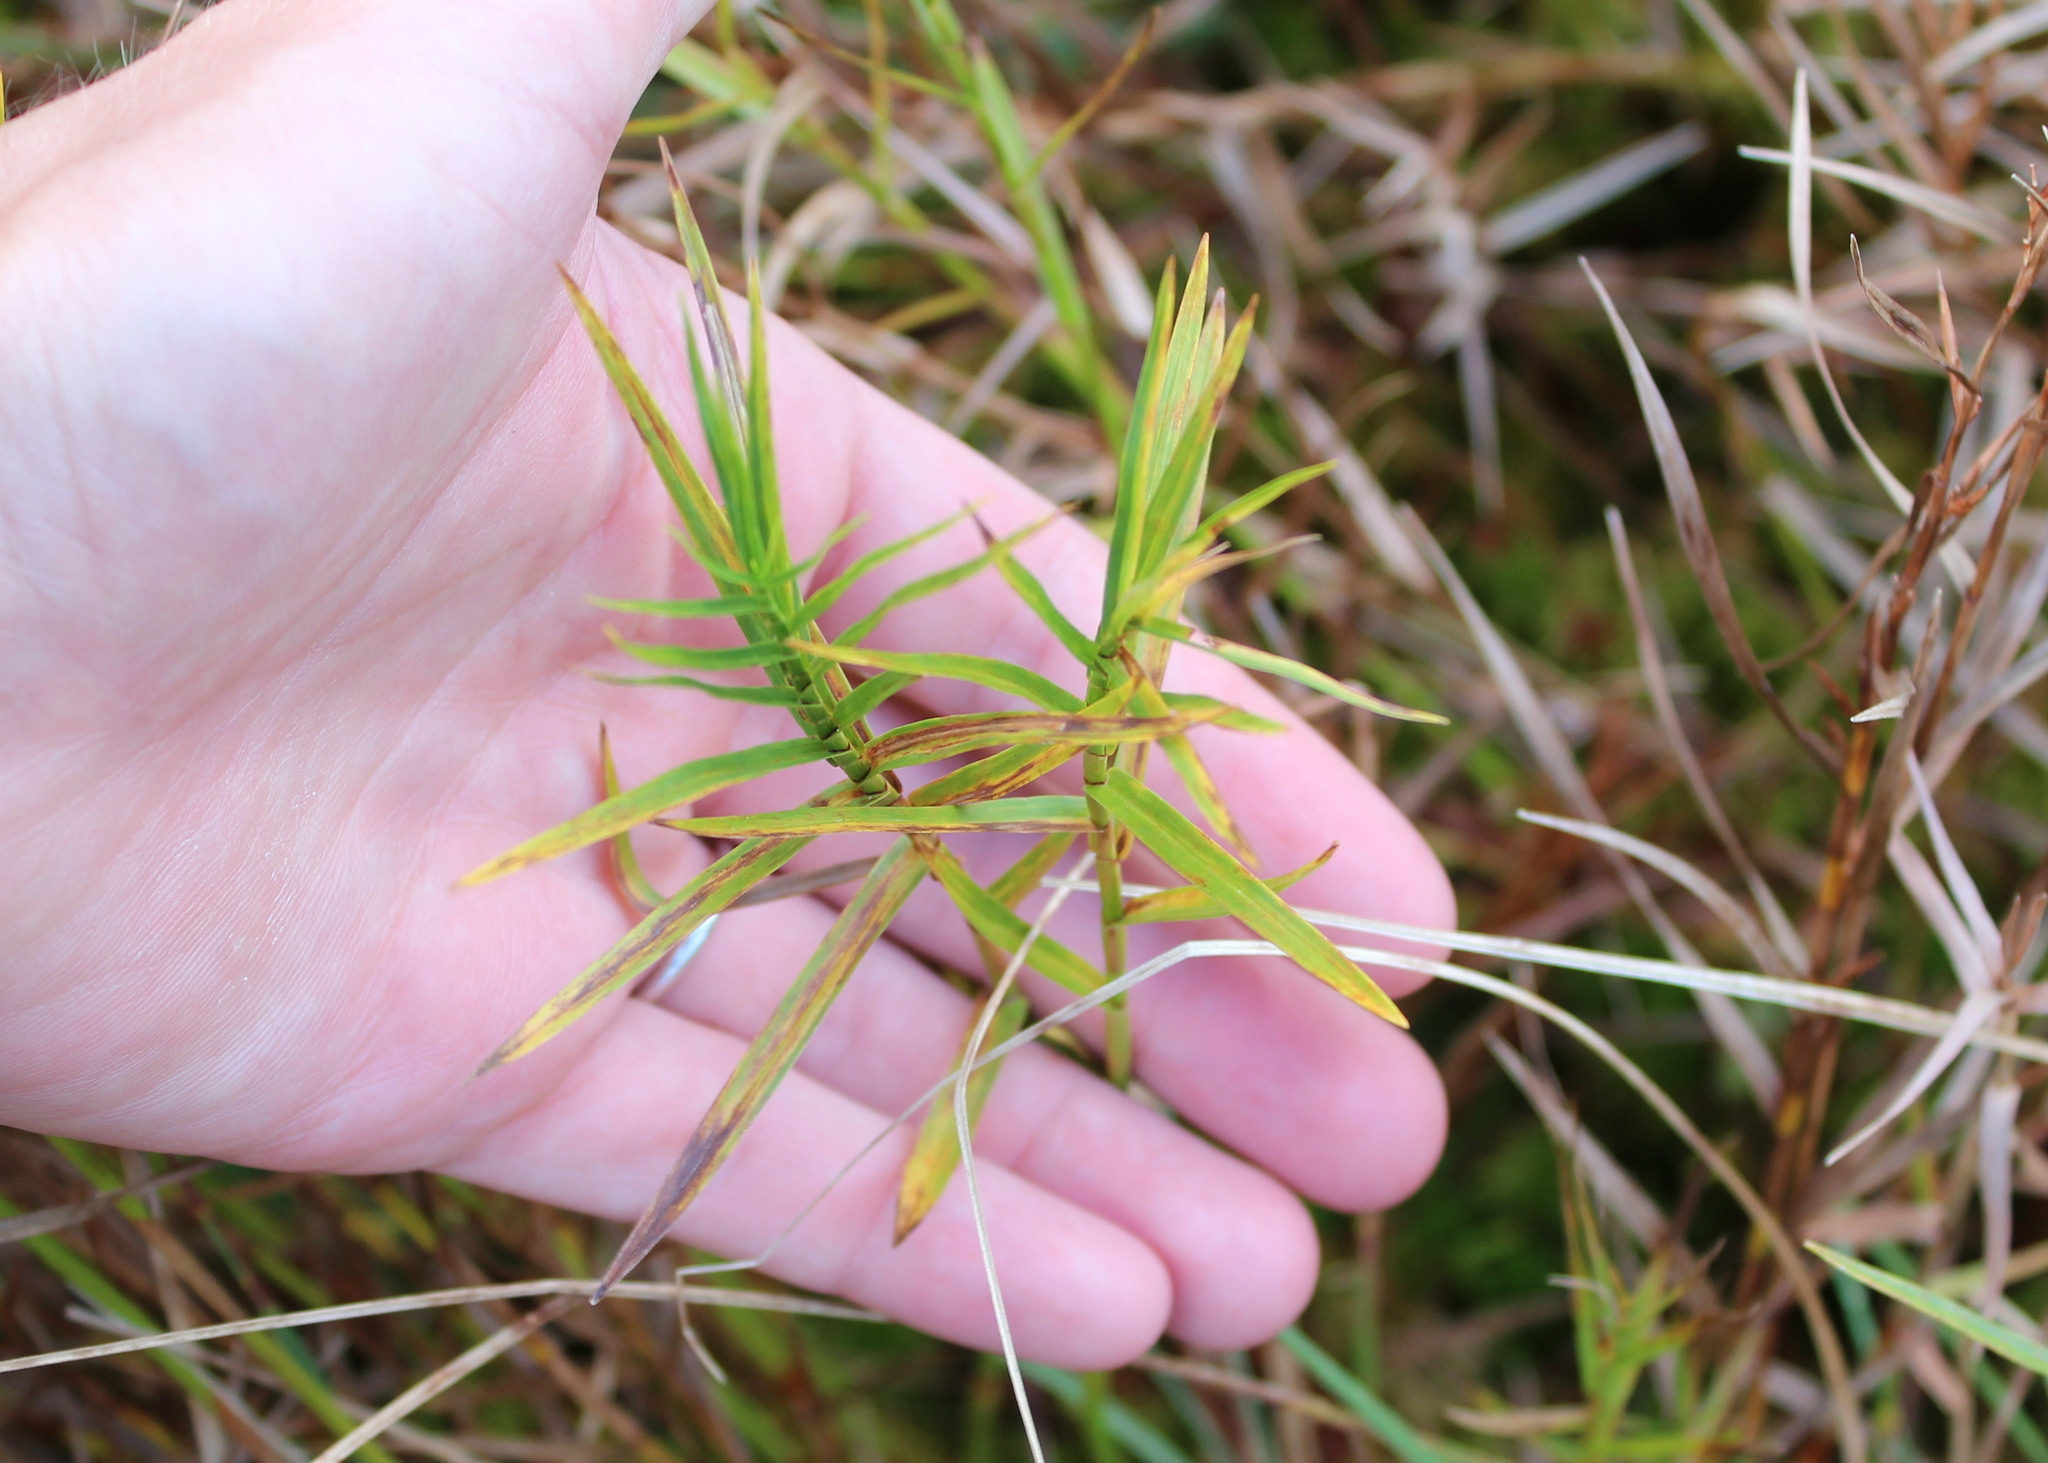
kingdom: Plantae
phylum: Tracheophyta
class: Liliopsida
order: Poales
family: Cyperaceae
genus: Dulichium
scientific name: Dulichium arundinaceum
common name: Three-way sedge
